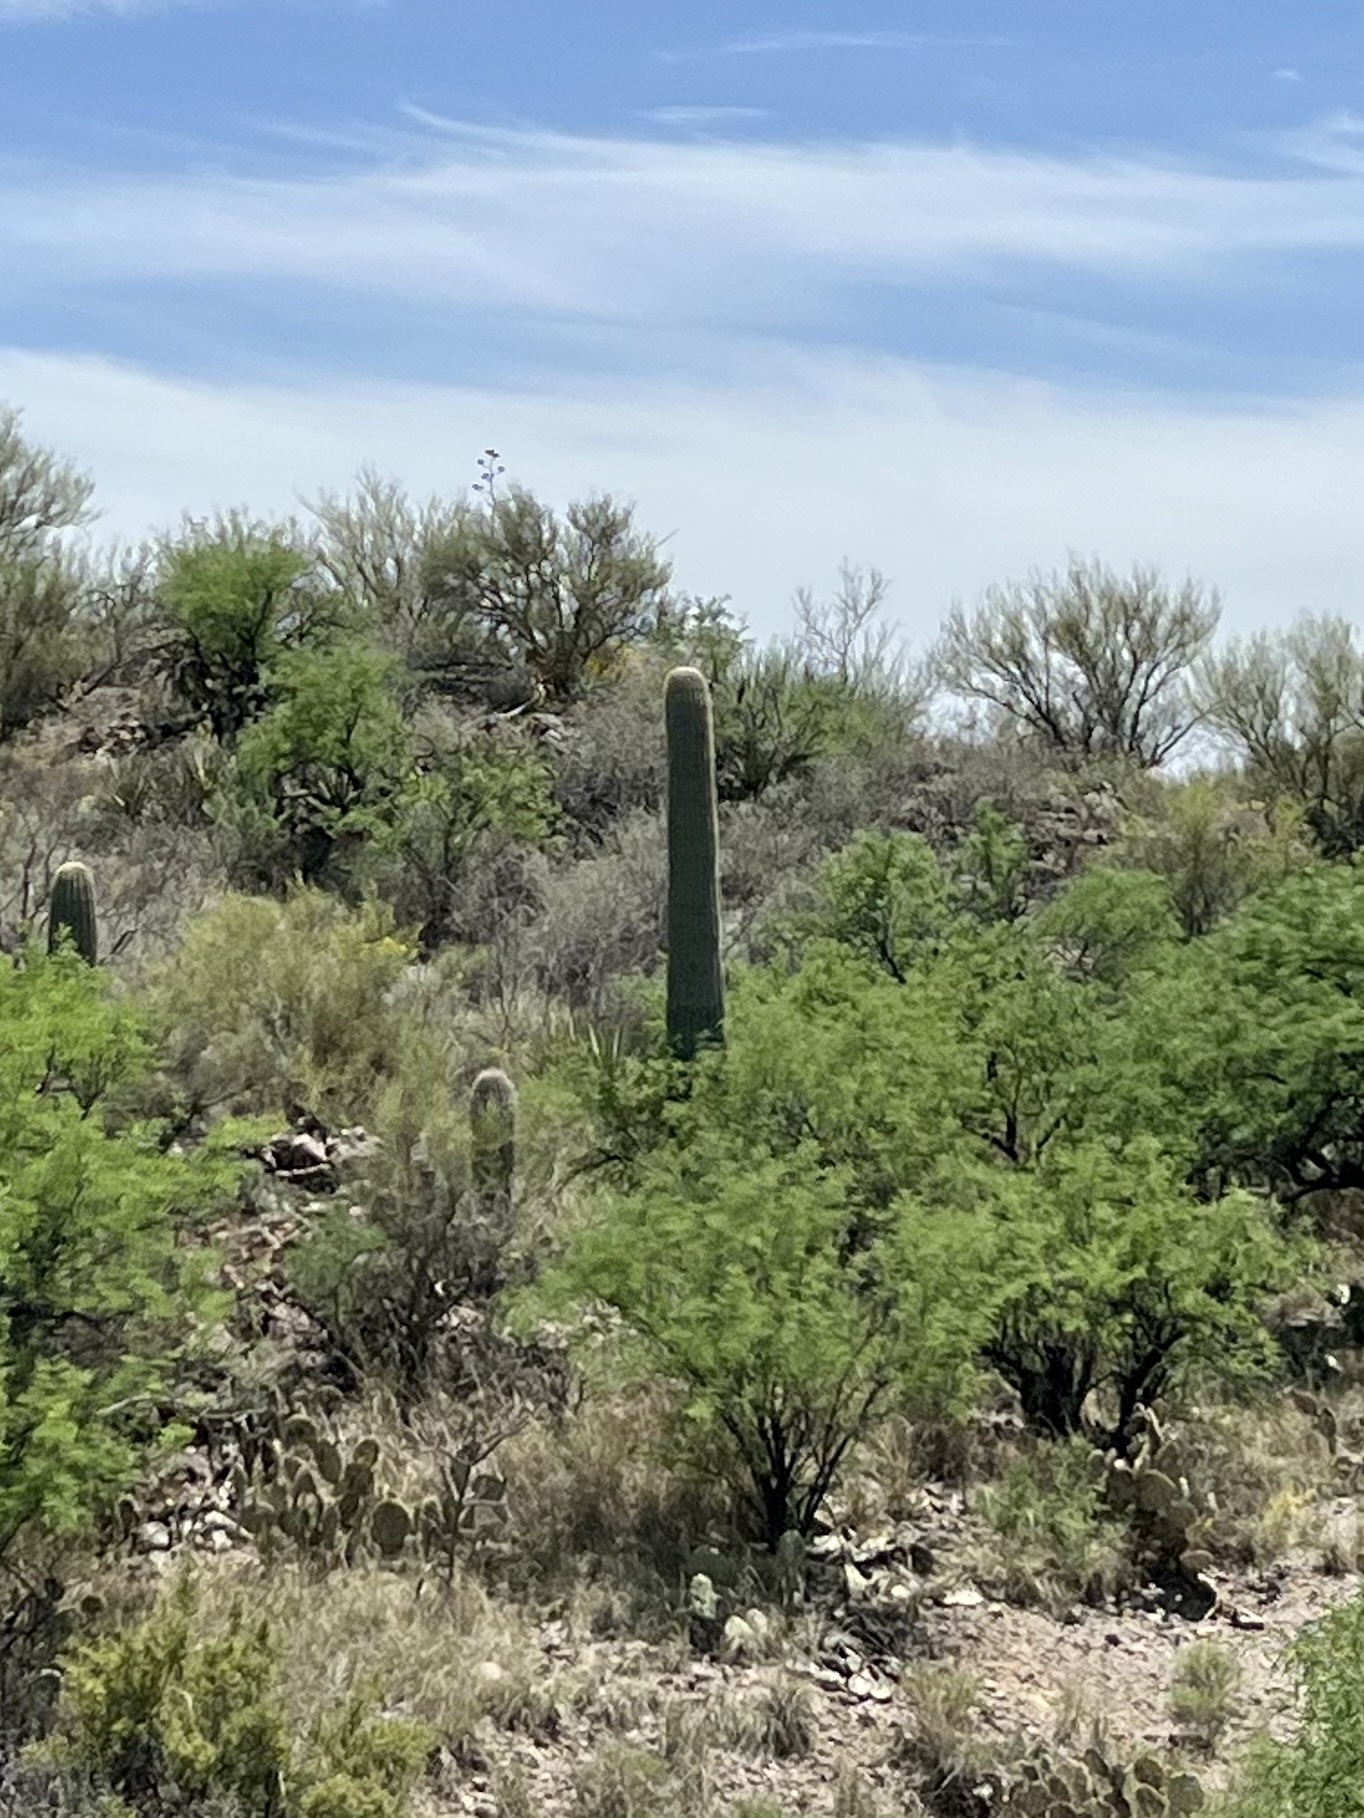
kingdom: Plantae
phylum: Tracheophyta
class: Magnoliopsida
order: Caryophyllales
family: Cactaceae
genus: Carnegiea
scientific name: Carnegiea gigantea
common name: Saguaro
